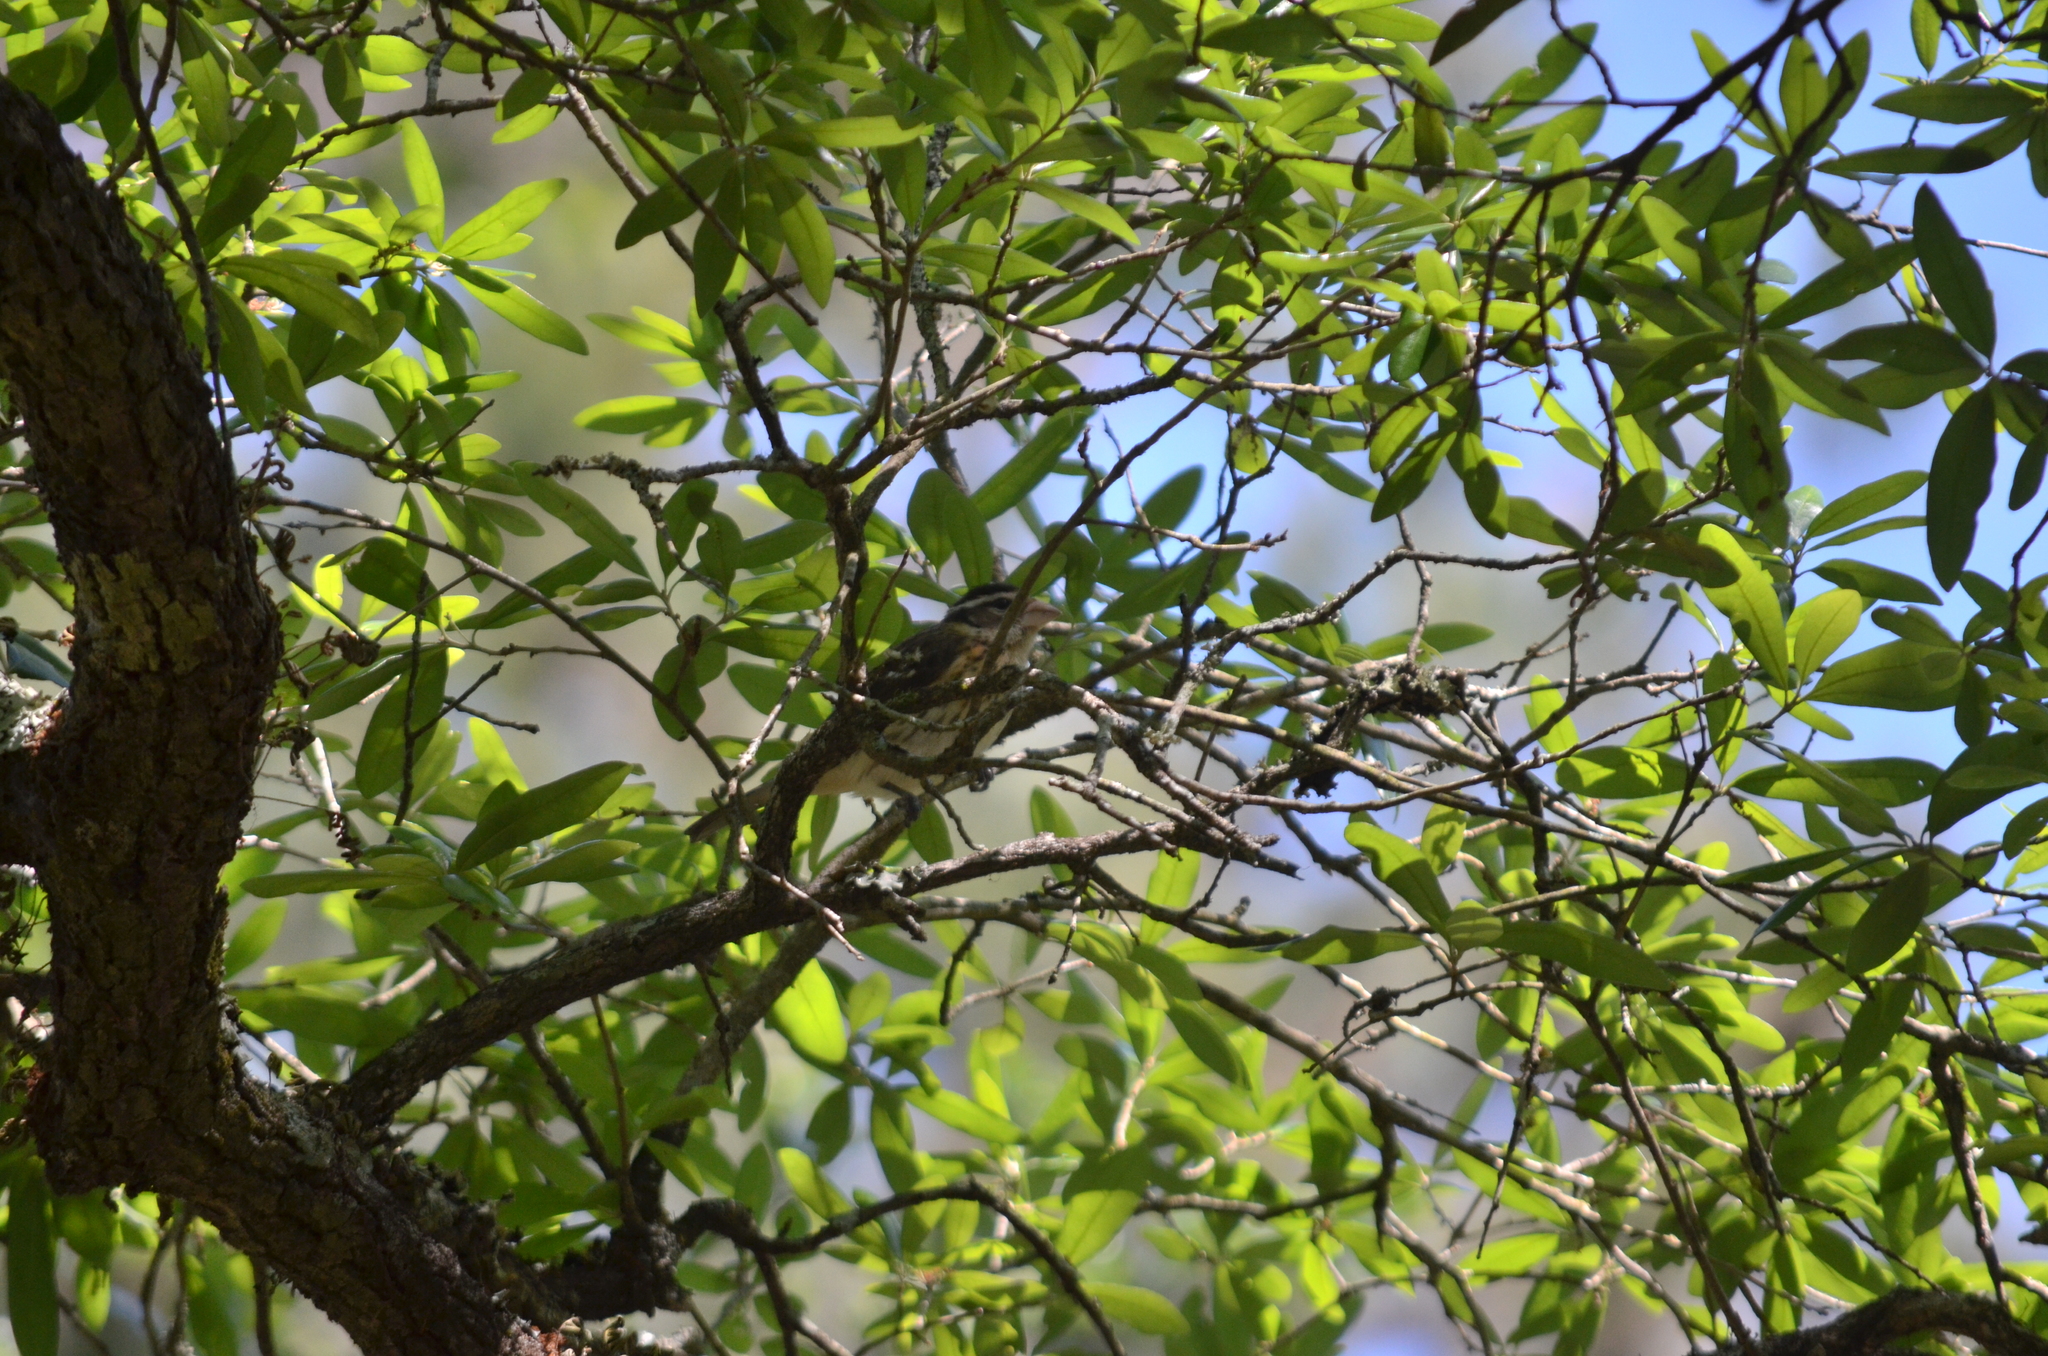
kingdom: Animalia
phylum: Chordata
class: Aves
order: Passeriformes
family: Cardinalidae
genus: Pheucticus
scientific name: Pheucticus ludovicianus
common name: Rose-breasted grosbeak
